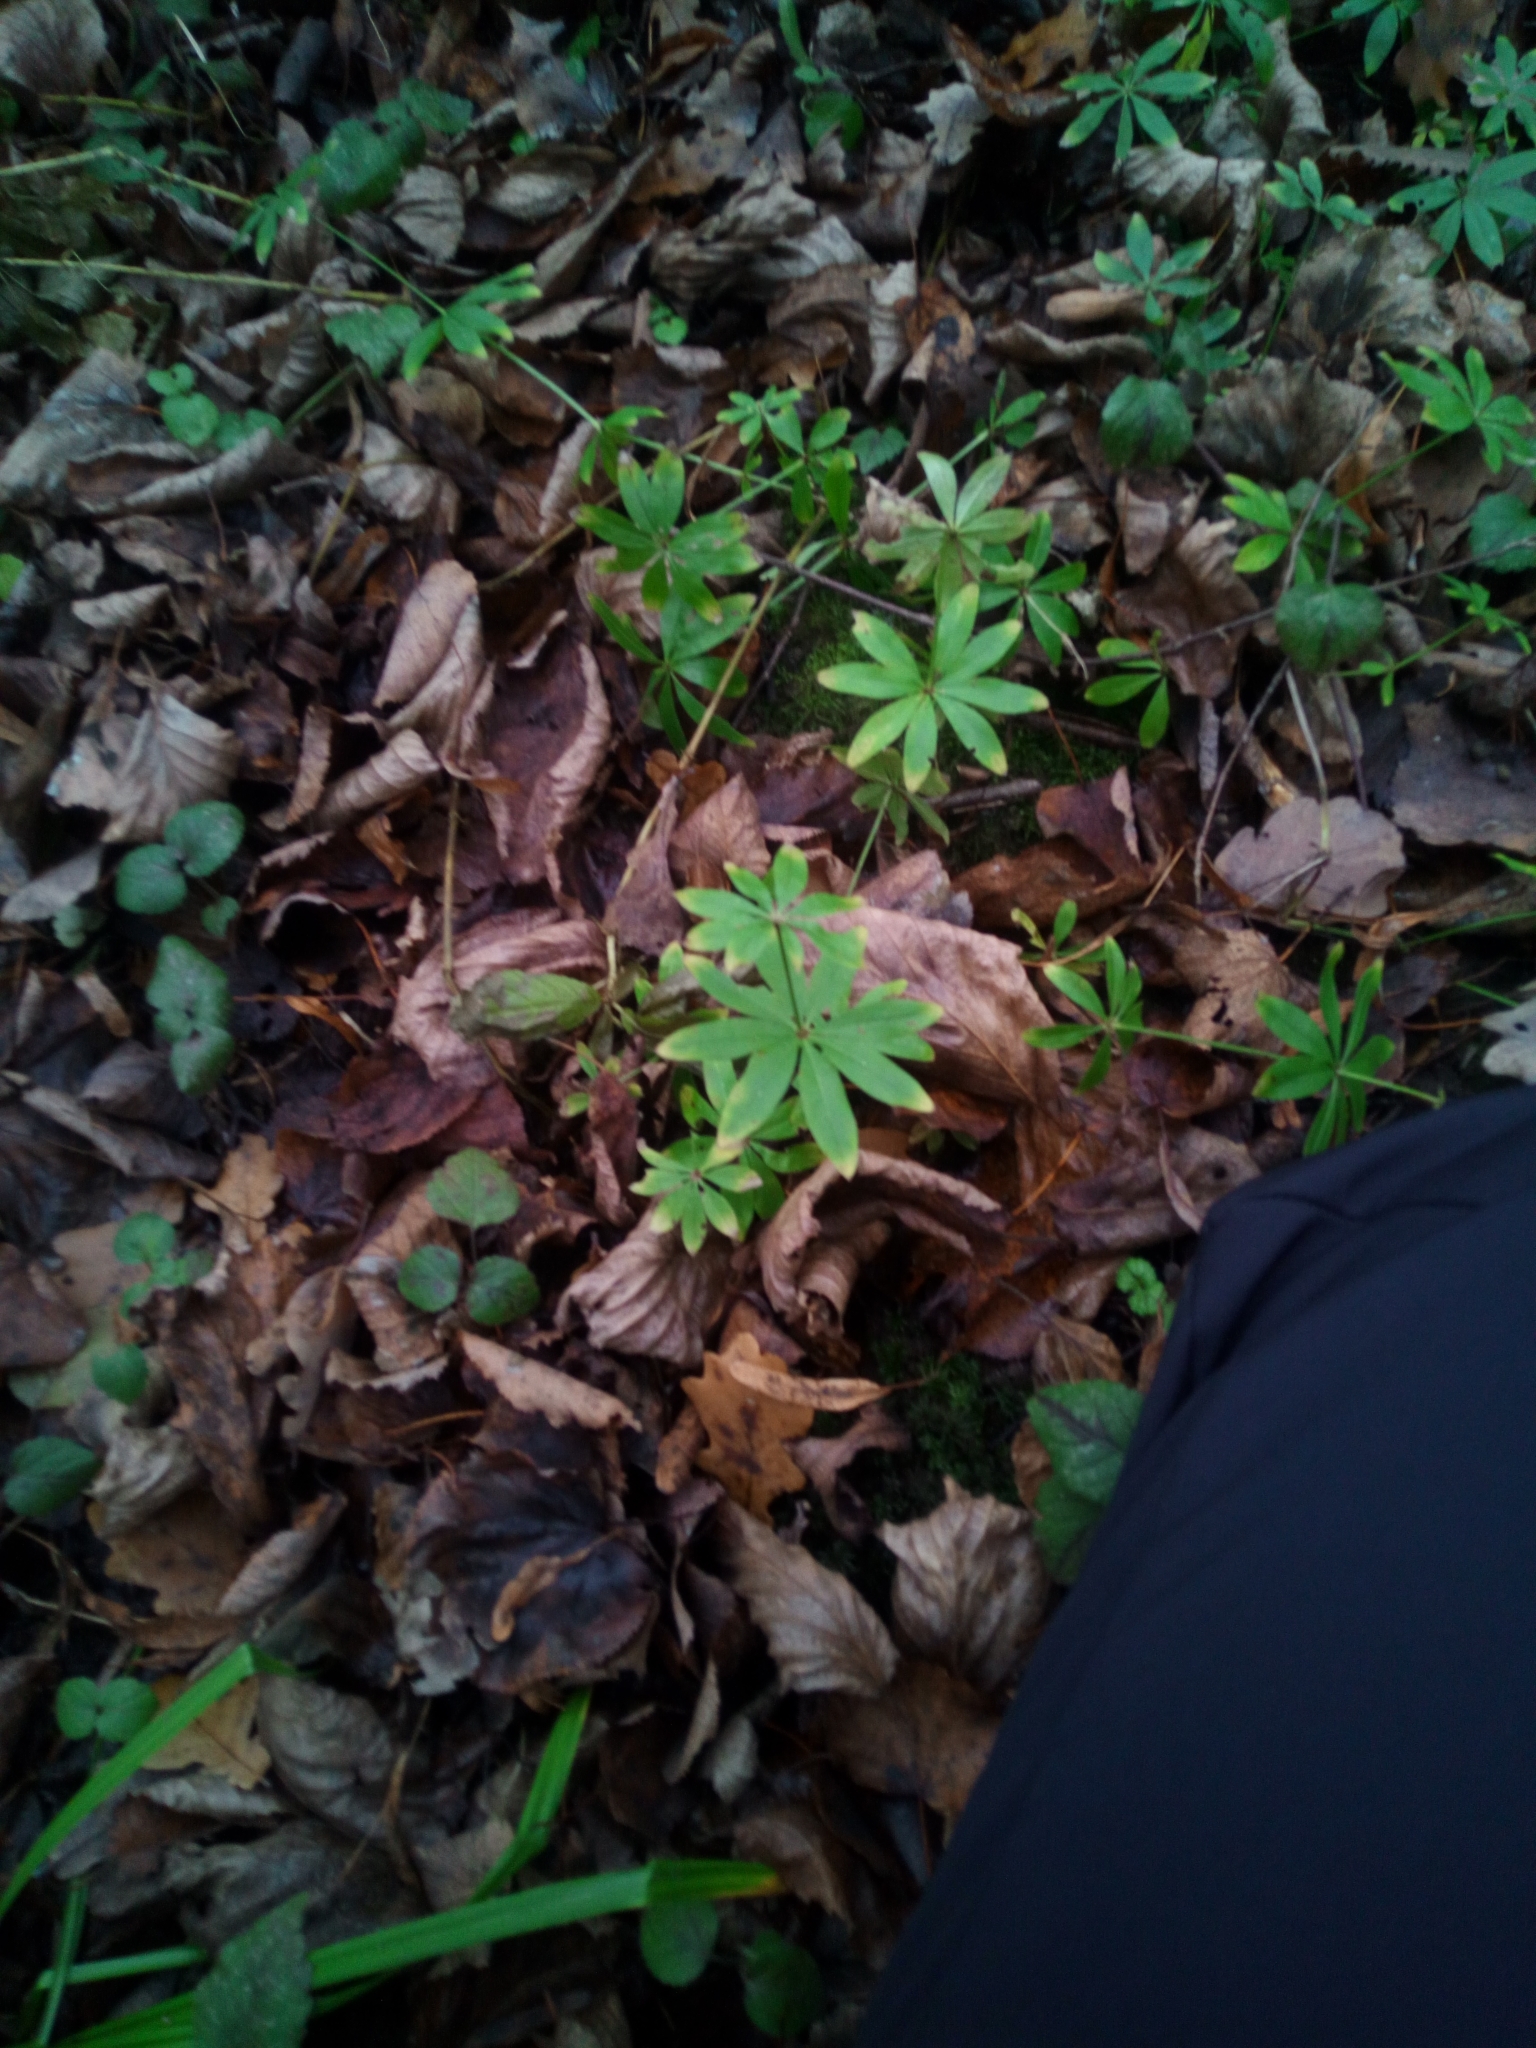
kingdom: Plantae
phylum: Tracheophyta
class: Magnoliopsida
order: Gentianales
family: Rubiaceae
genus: Galium
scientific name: Galium intermedium
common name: Bedstraw
